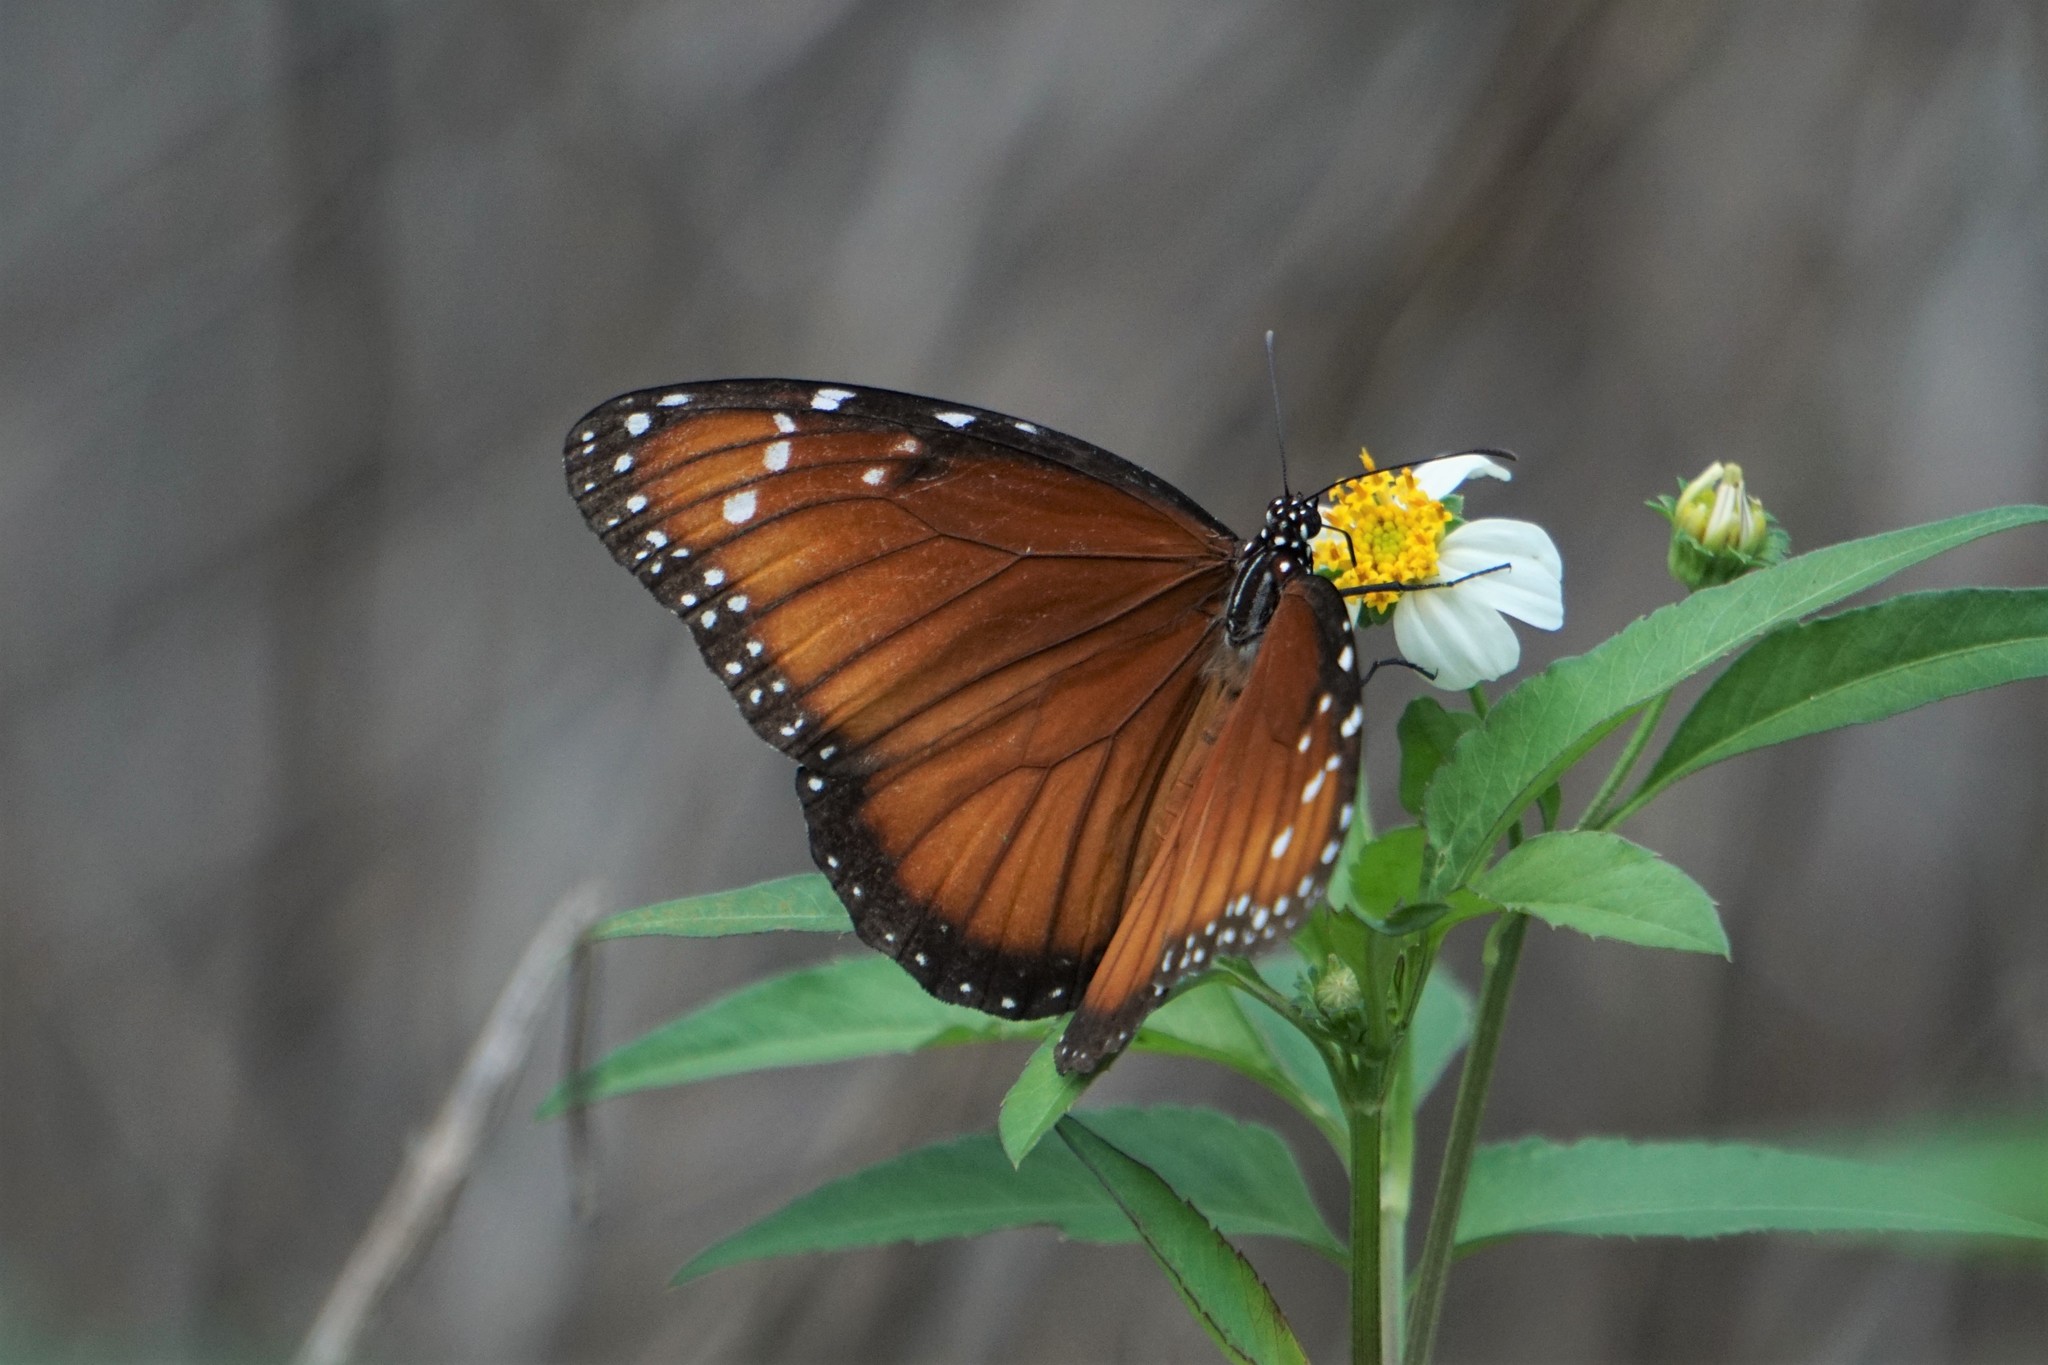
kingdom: Animalia
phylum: Arthropoda
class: Insecta
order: Lepidoptera
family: Nymphalidae
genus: Danaus
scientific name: Danaus gilippus
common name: Queen
